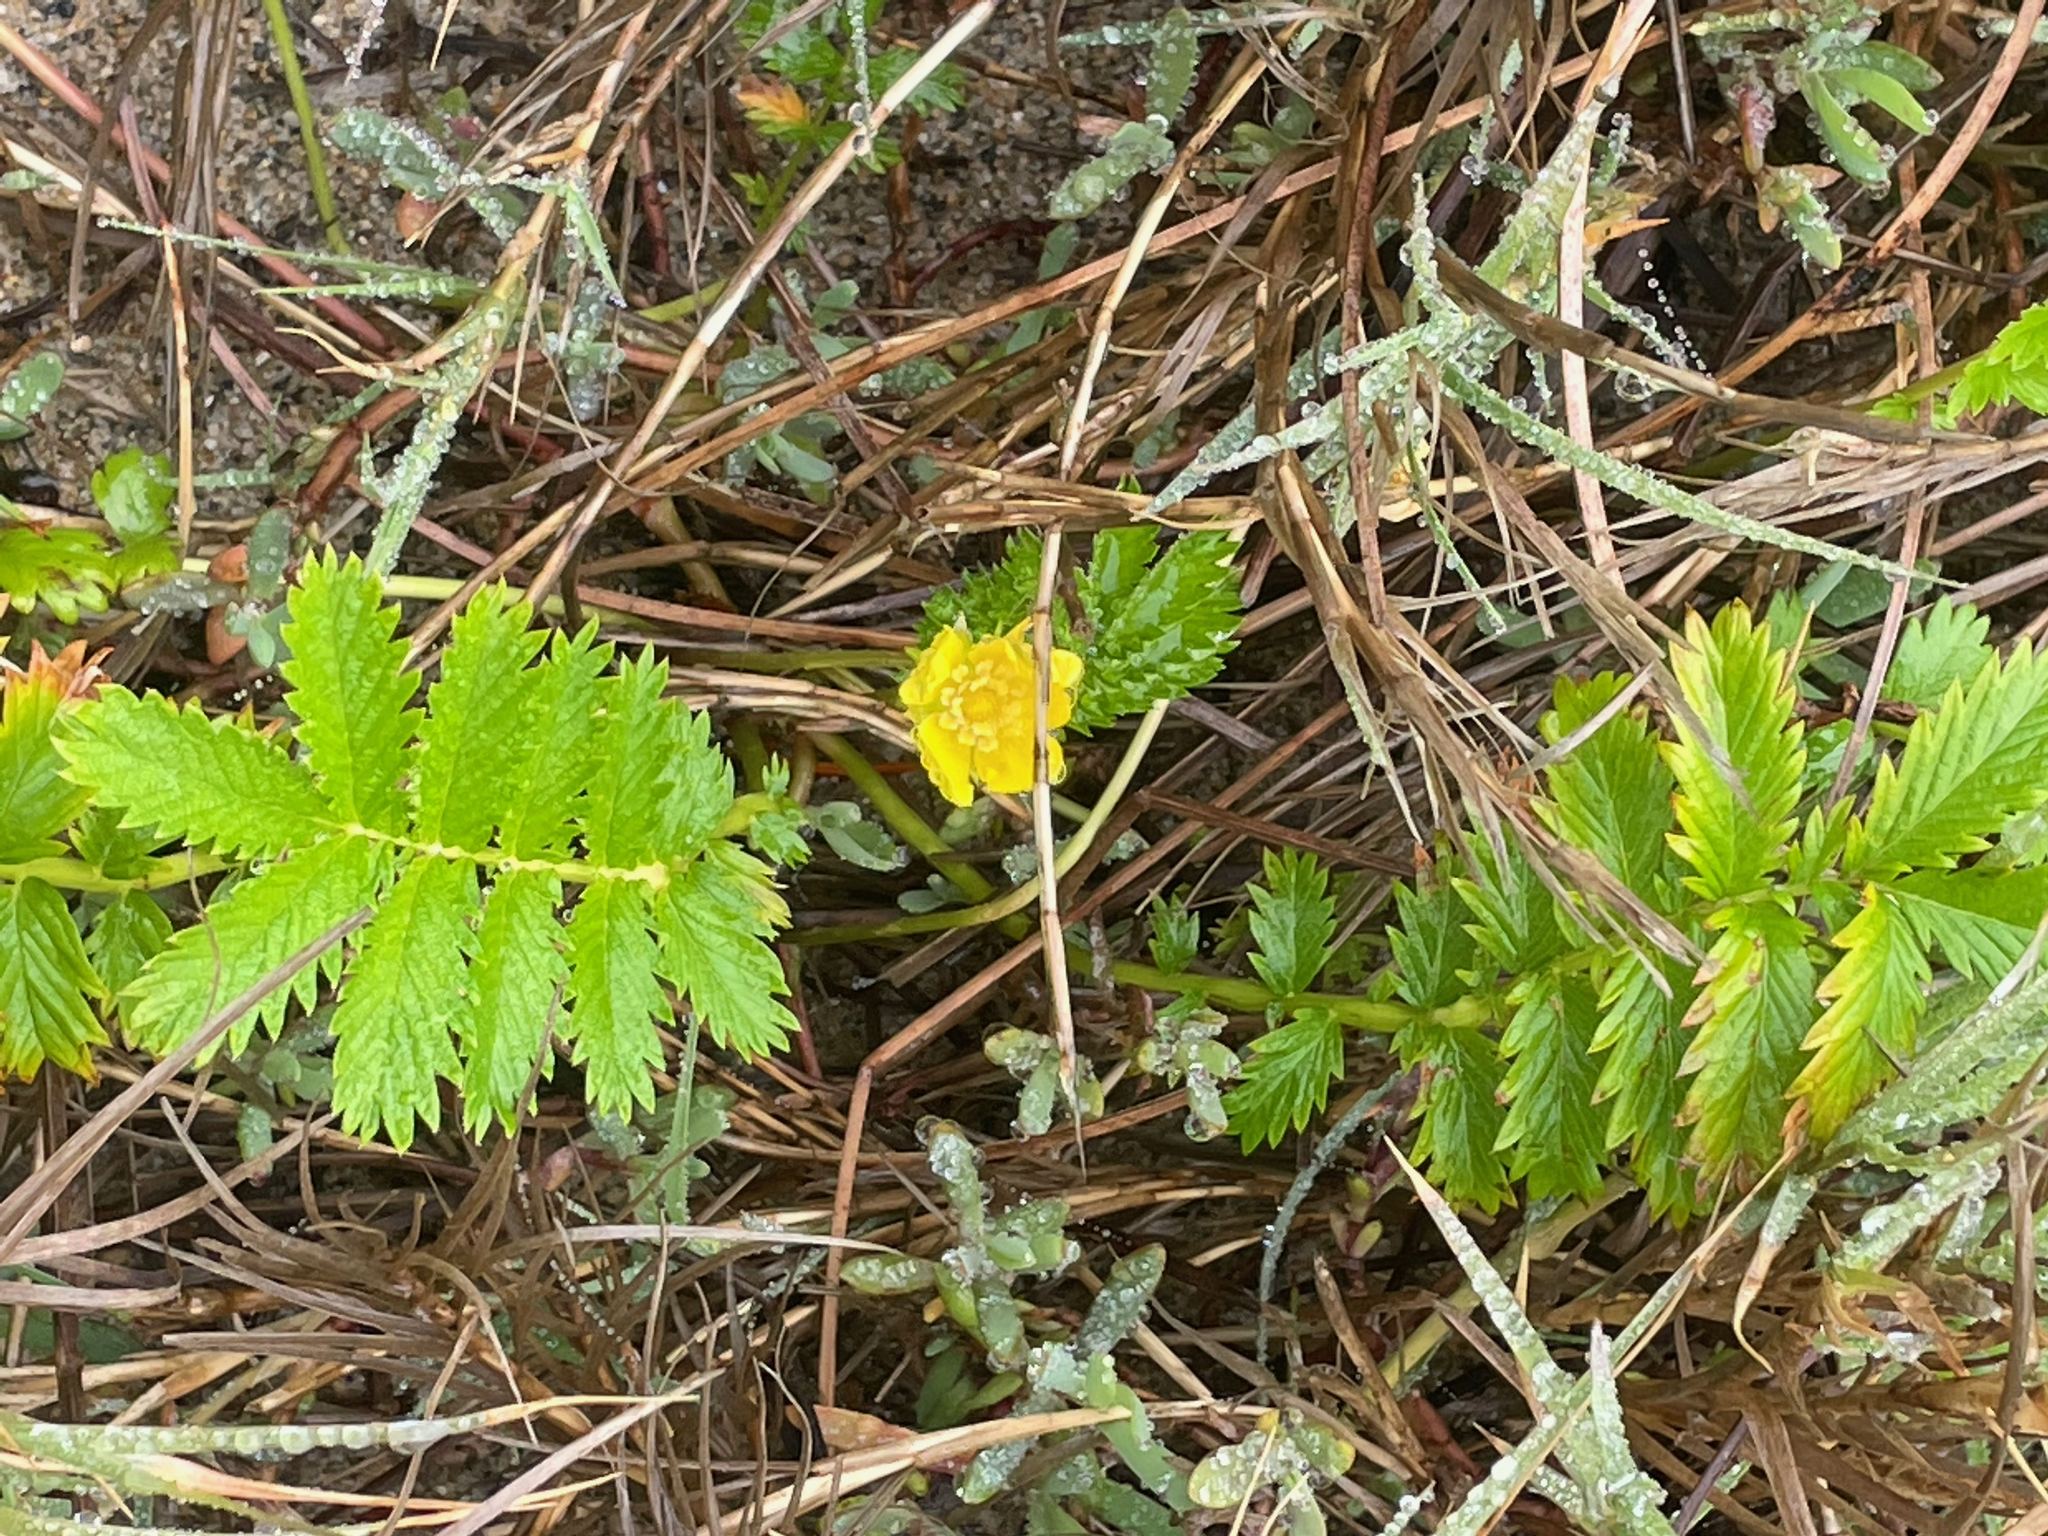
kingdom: Plantae
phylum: Tracheophyta
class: Magnoliopsida
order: Rosales
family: Rosaceae
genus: Argentina
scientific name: Argentina anserina
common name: Common silverweed
